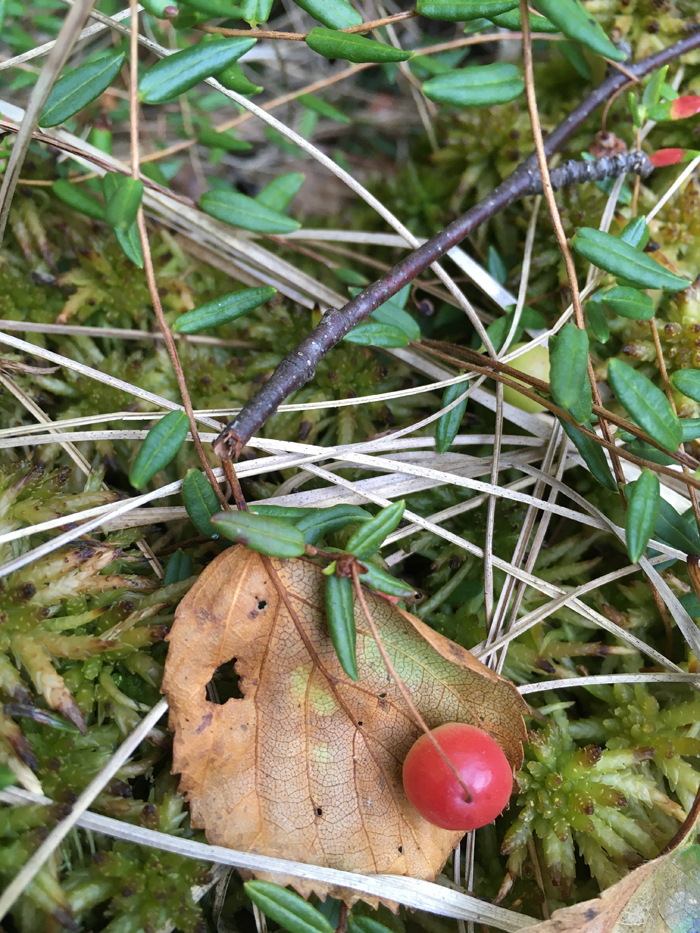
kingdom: Plantae
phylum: Tracheophyta
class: Magnoliopsida
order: Ericales
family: Ericaceae
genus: Vaccinium
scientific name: Vaccinium oxycoccos
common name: Cranberry
